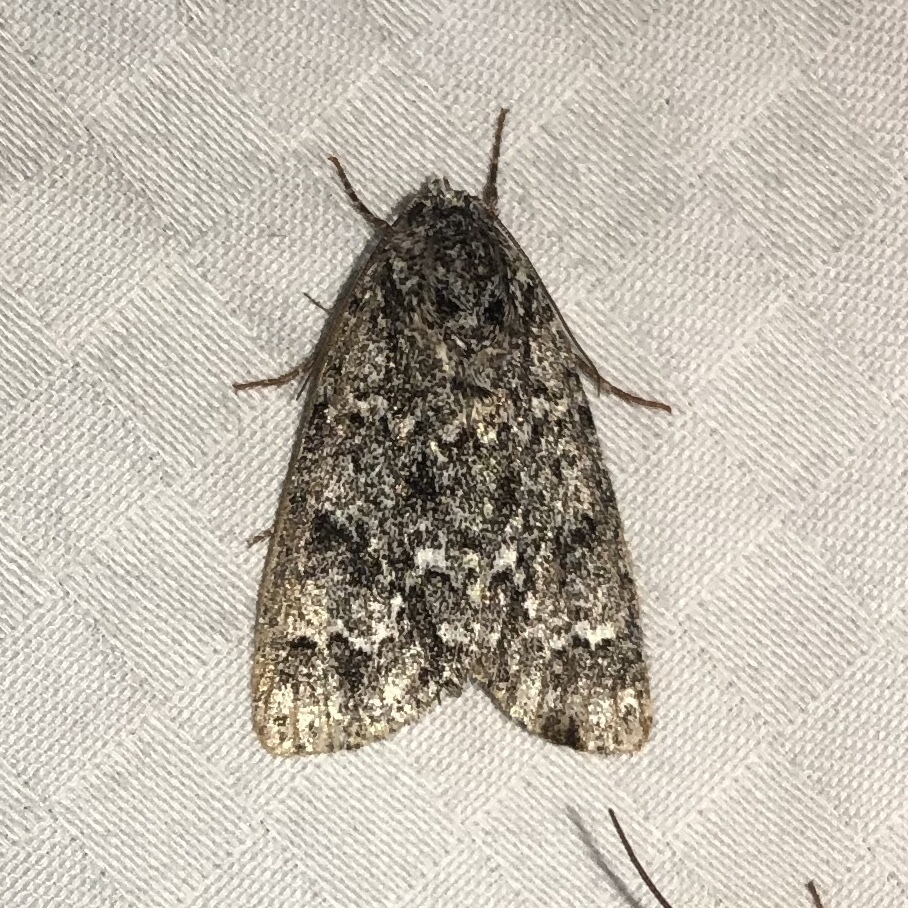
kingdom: Animalia
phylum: Arthropoda
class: Insecta
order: Lepidoptera
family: Noctuidae
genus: Acronicta
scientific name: Acronicta noctivaga
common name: Night-wandering dagger
